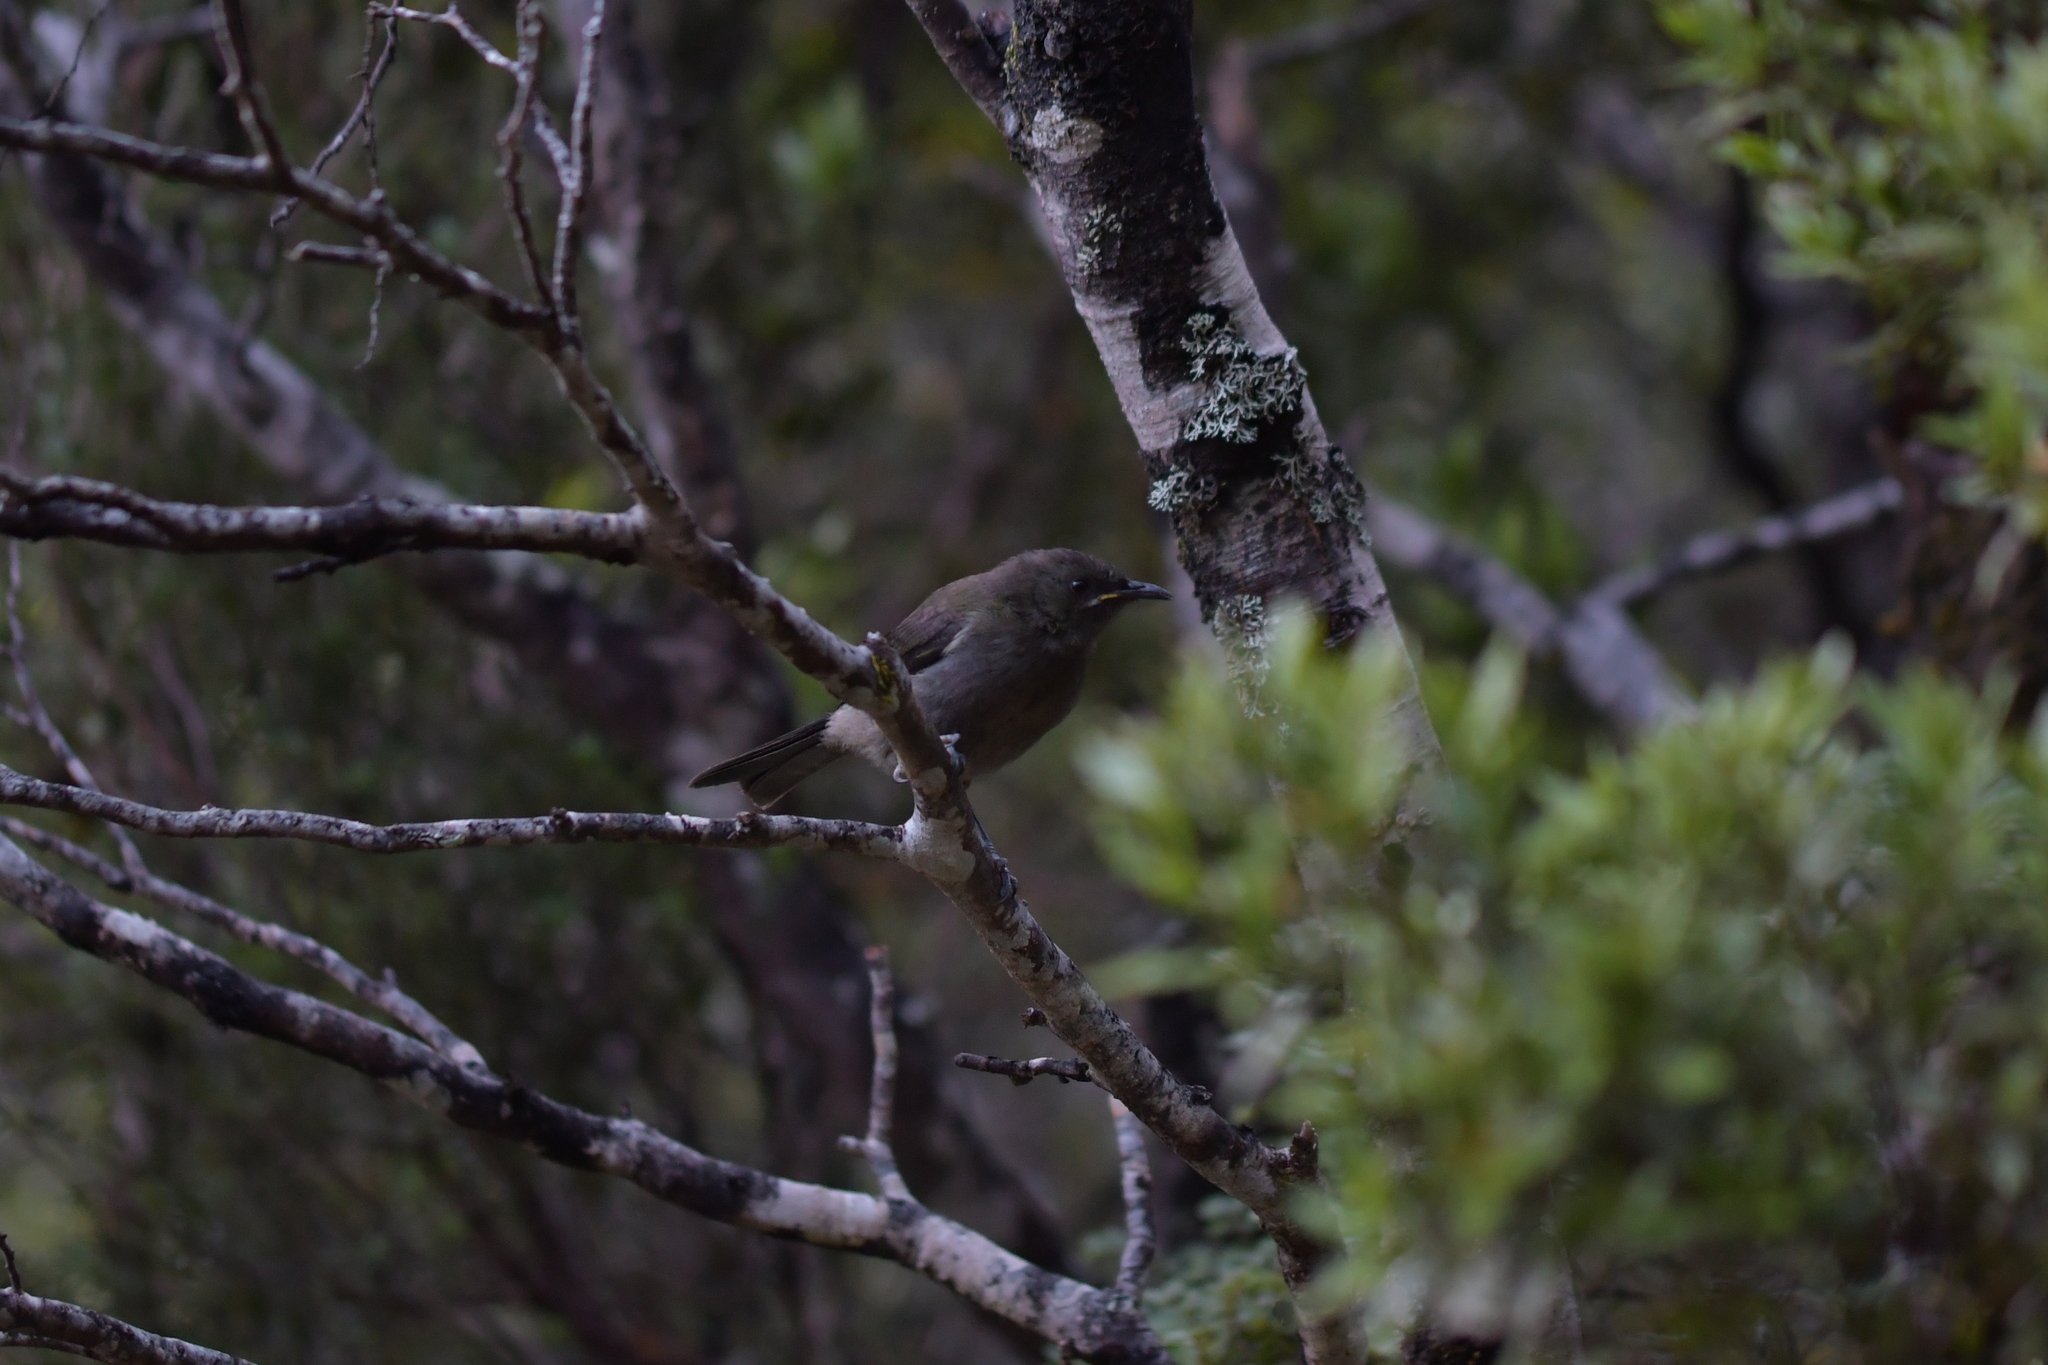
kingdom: Animalia
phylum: Chordata
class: Aves
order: Passeriformes
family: Meliphagidae
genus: Anthornis
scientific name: Anthornis melanura
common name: New zealand bellbird
